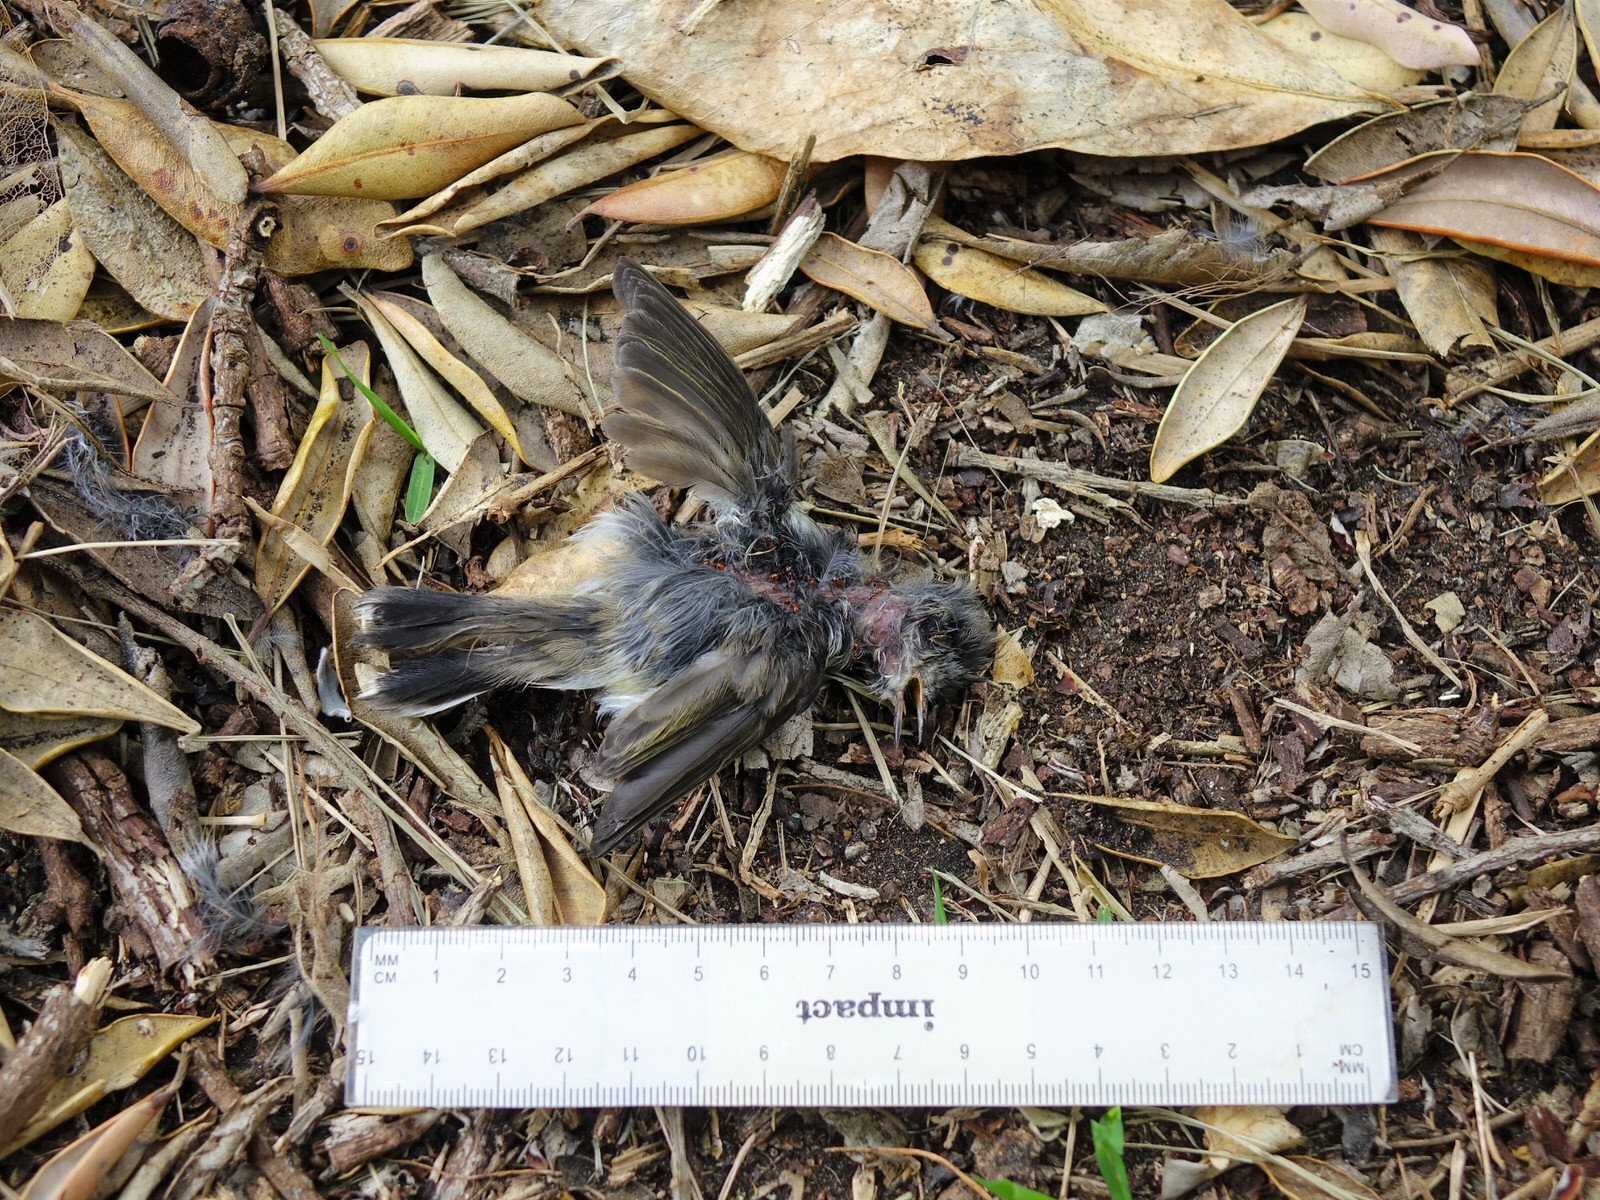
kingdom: Animalia
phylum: Chordata
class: Aves
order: Passeriformes
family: Acanthizidae
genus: Gerygone
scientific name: Gerygone igata
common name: Grey gerygone
